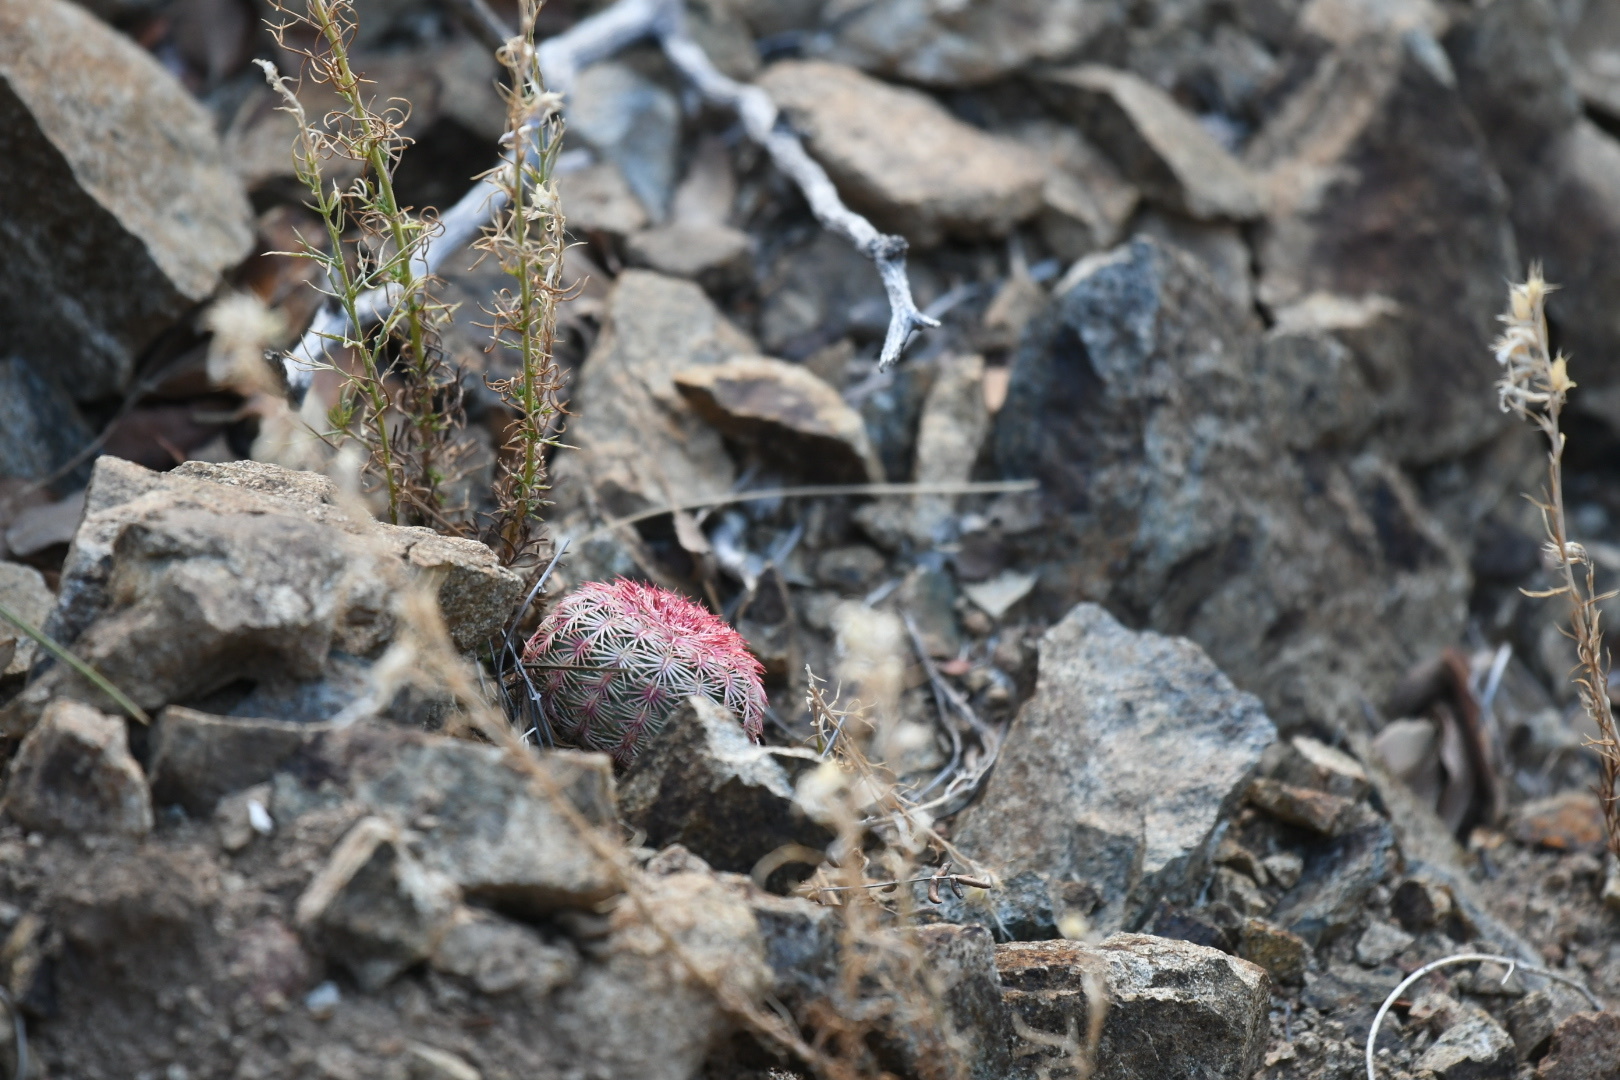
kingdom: Plantae
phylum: Tracheophyta
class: Magnoliopsida
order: Caryophyllales
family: Cactaceae
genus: Echinocereus
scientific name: Echinocereus rigidissimus
